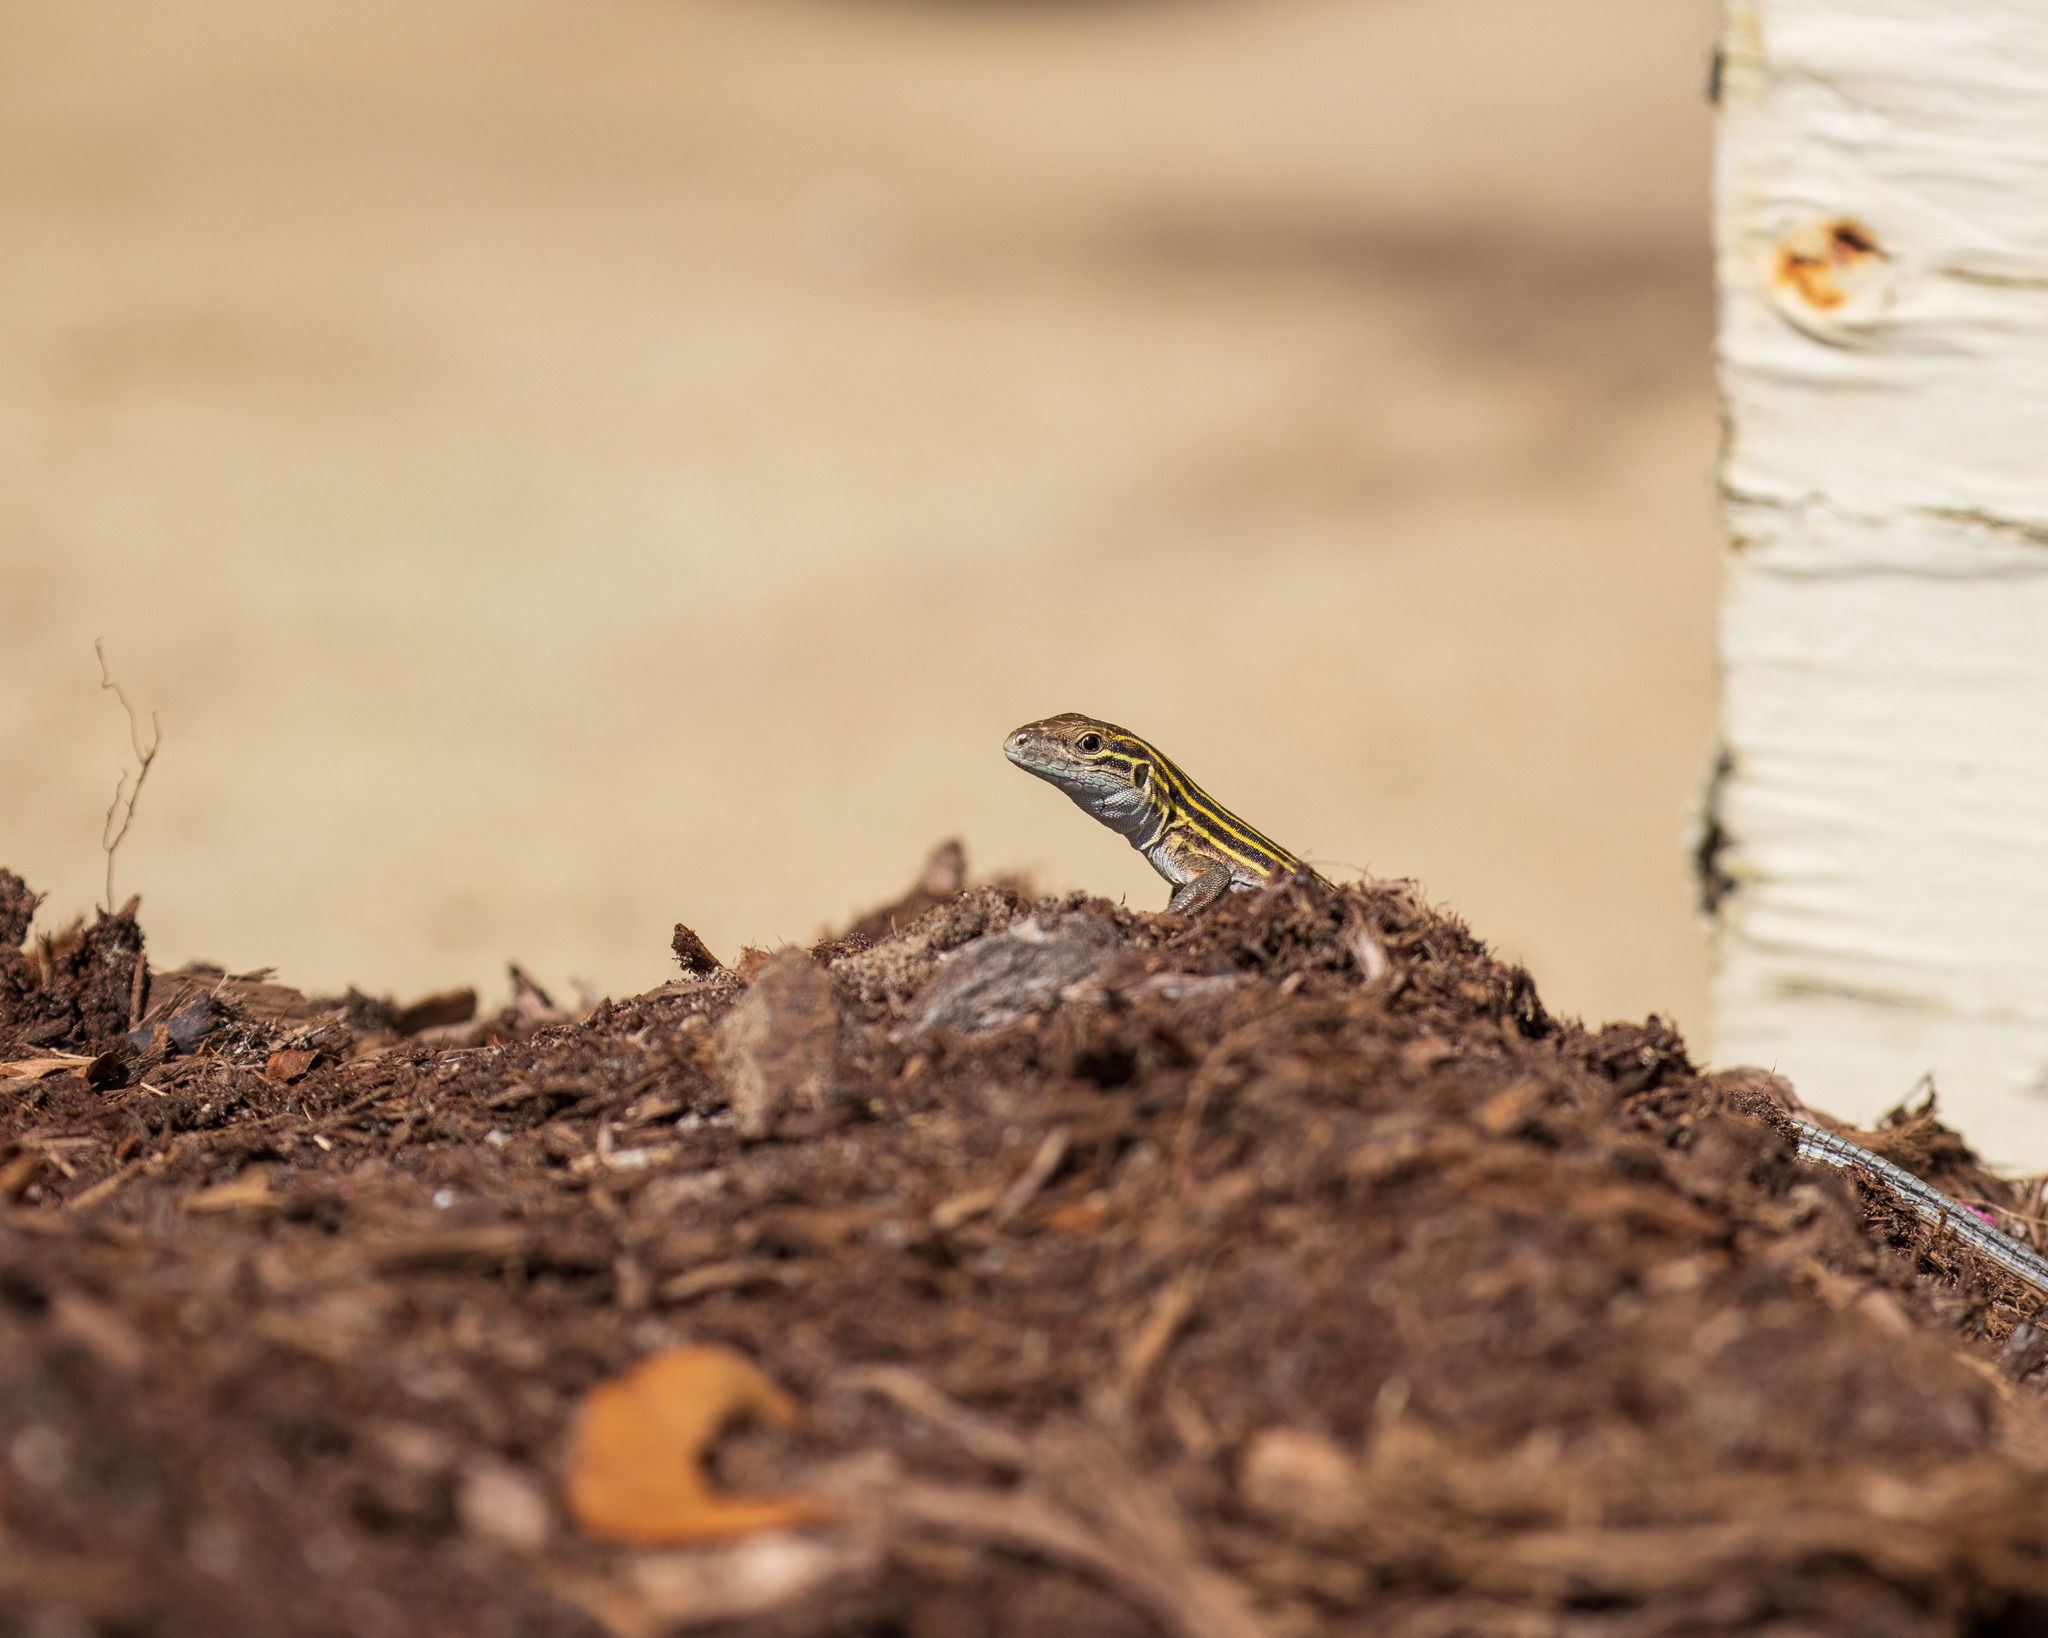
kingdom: Animalia
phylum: Chordata
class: Squamata
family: Teiidae
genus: Aspidoscelis
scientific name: Aspidoscelis sexlineatus
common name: Six-lined racerunner
